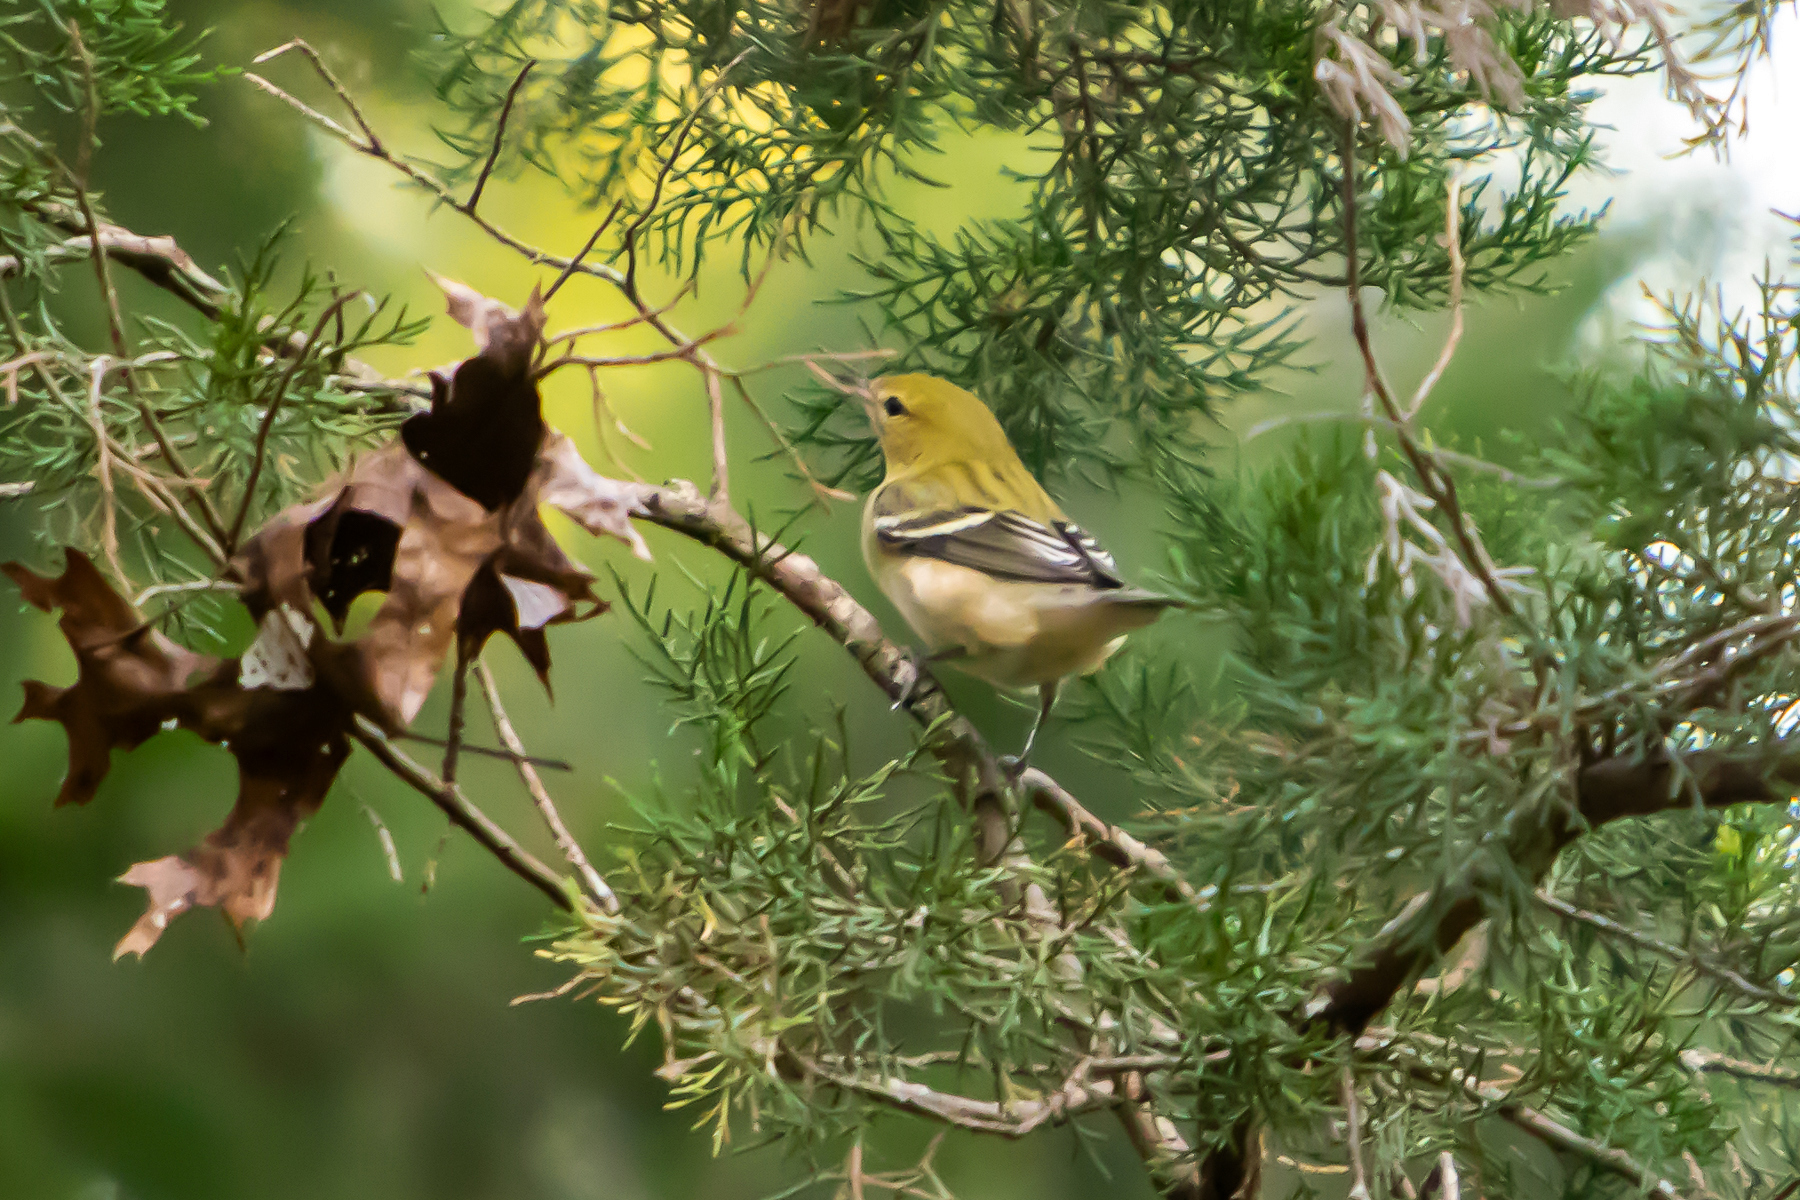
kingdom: Animalia
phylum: Chordata
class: Aves
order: Passeriformes
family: Parulidae
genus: Setophaga
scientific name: Setophaga castanea
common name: Bay-breasted warbler
